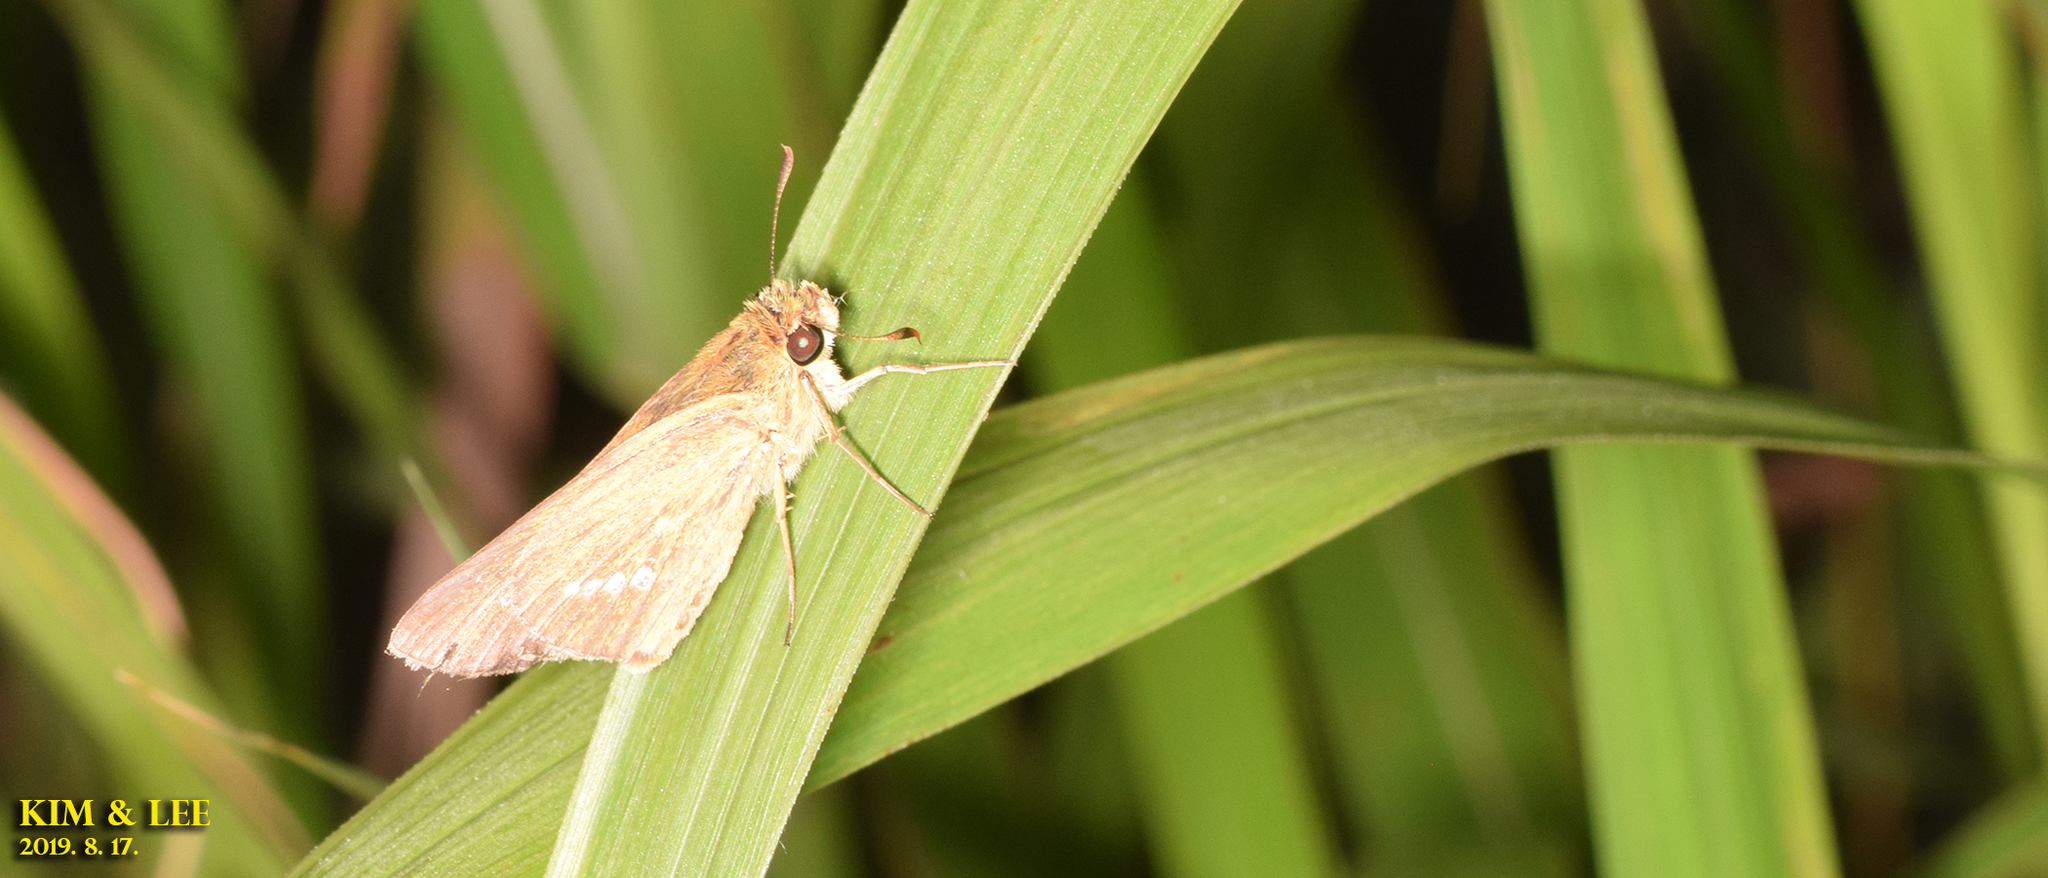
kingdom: Animalia
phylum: Arthropoda
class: Insecta
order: Lepidoptera
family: Hesperiidae
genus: Parnara
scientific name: Parnara guttatus
